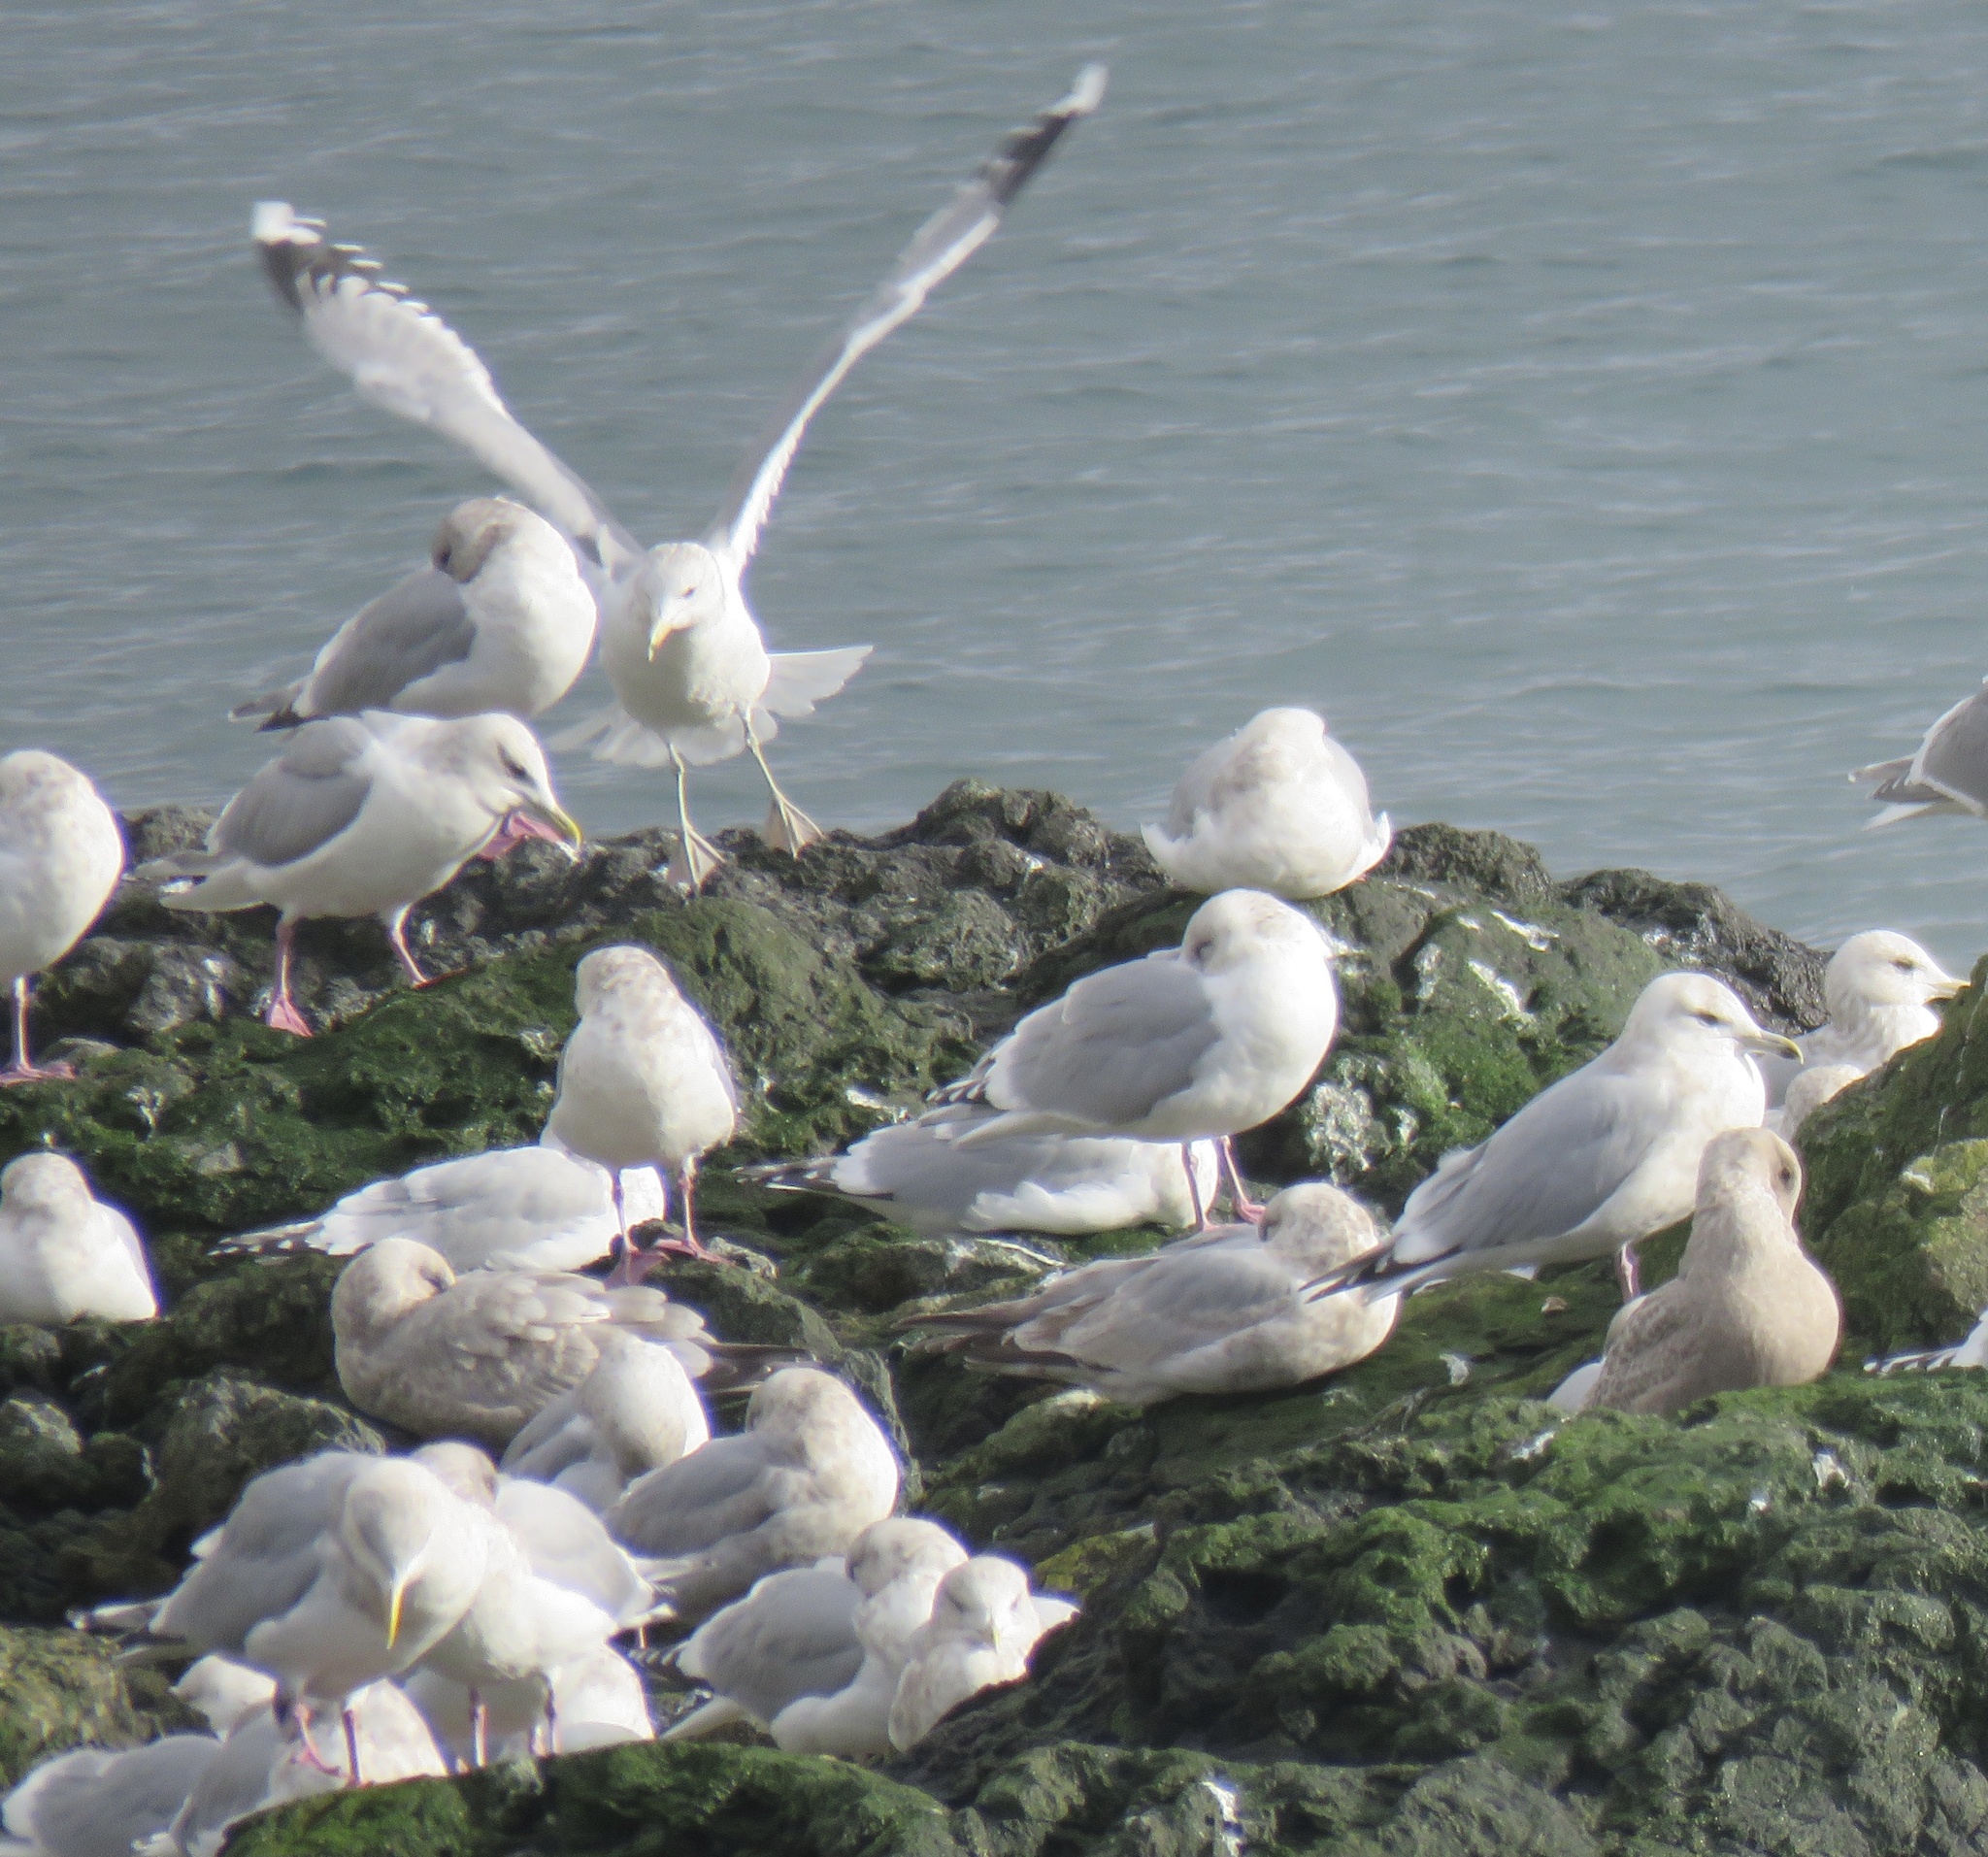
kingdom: Animalia
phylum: Chordata
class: Aves
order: Charadriiformes
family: Laridae
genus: Larus
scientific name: Larus glaucoides
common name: Iceland gull
